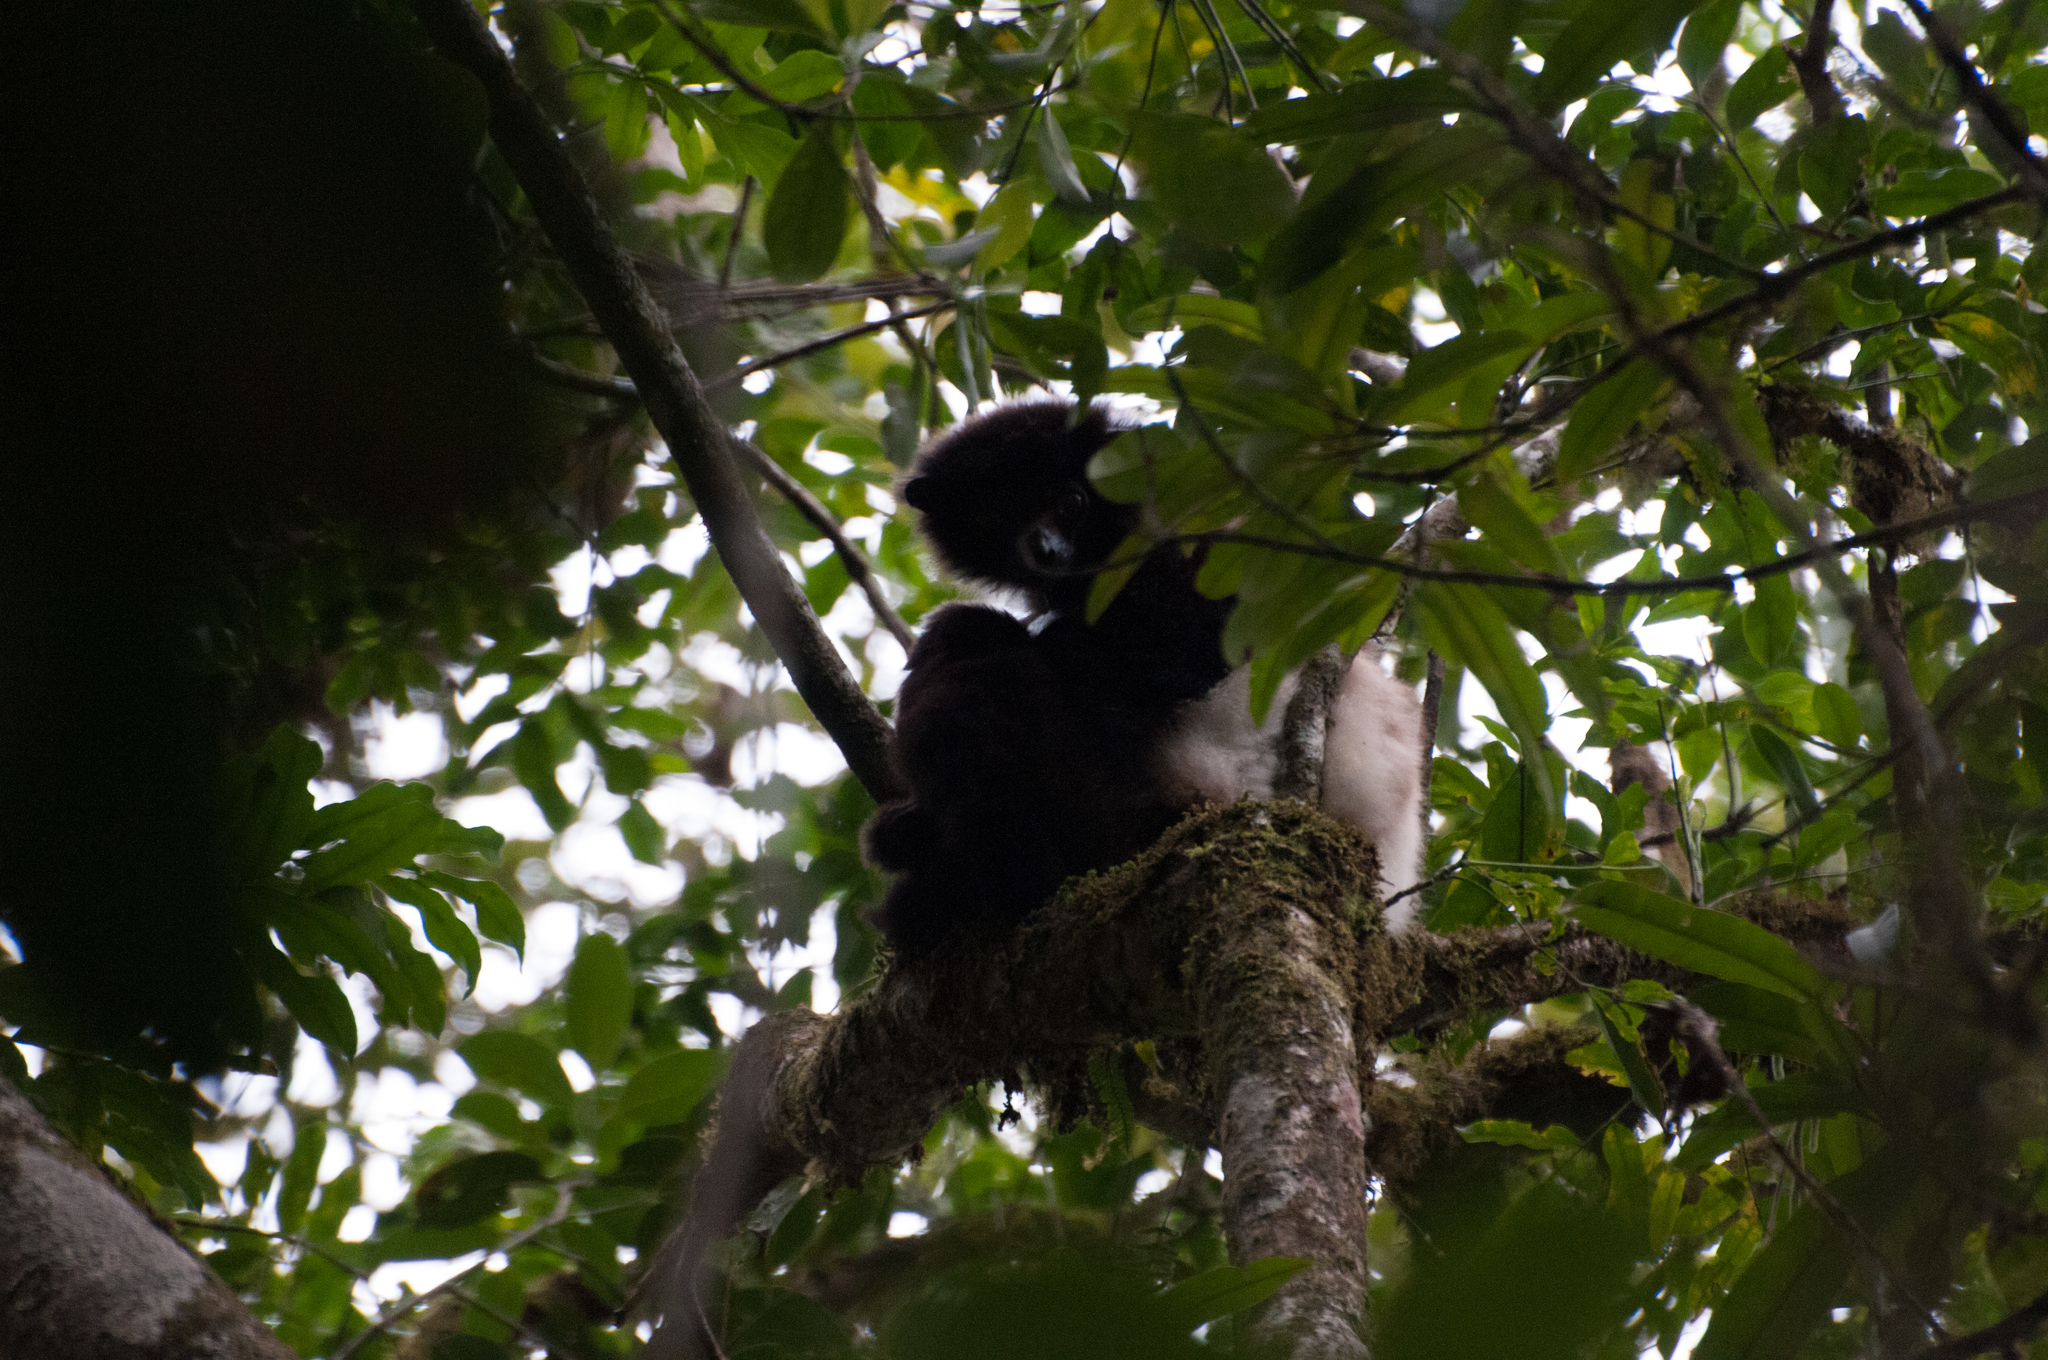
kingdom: Animalia
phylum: Chordata
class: Mammalia
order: Primates
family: Indriidae
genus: Propithecus
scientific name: Propithecus edwardsi
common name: Milne-edwards’s simpona
